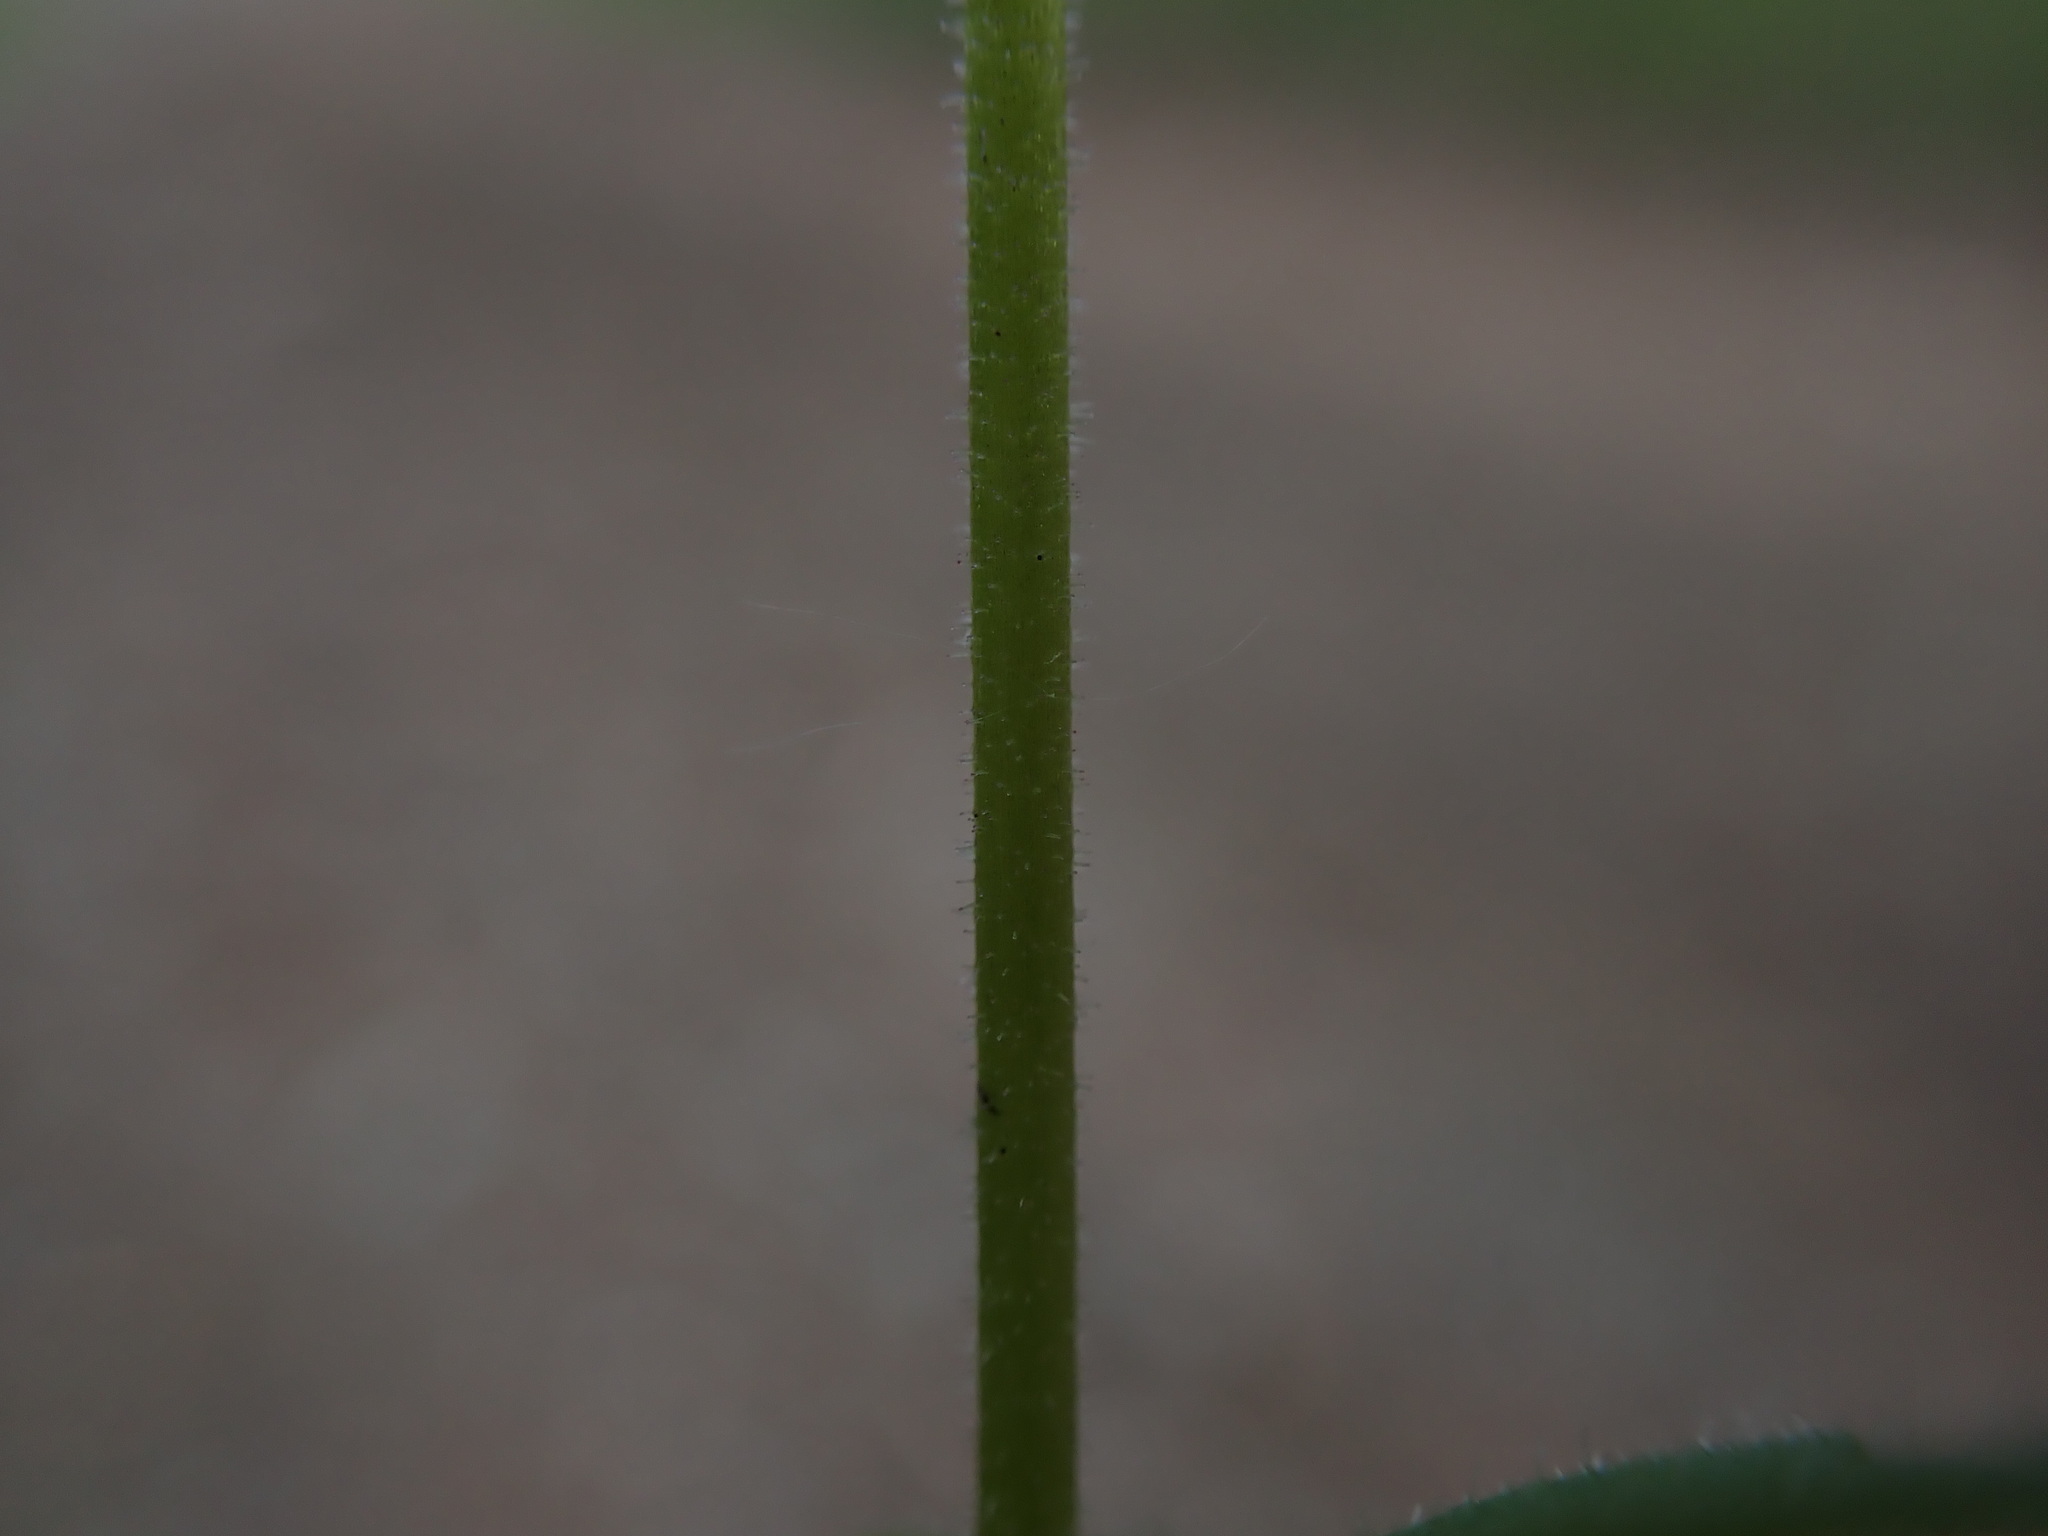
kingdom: Plantae
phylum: Tracheophyta
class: Magnoliopsida
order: Saxifragales
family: Saxifragaceae
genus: Lithophragma
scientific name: Lithophragma parviflorum
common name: Small-flowered fringe-cup
